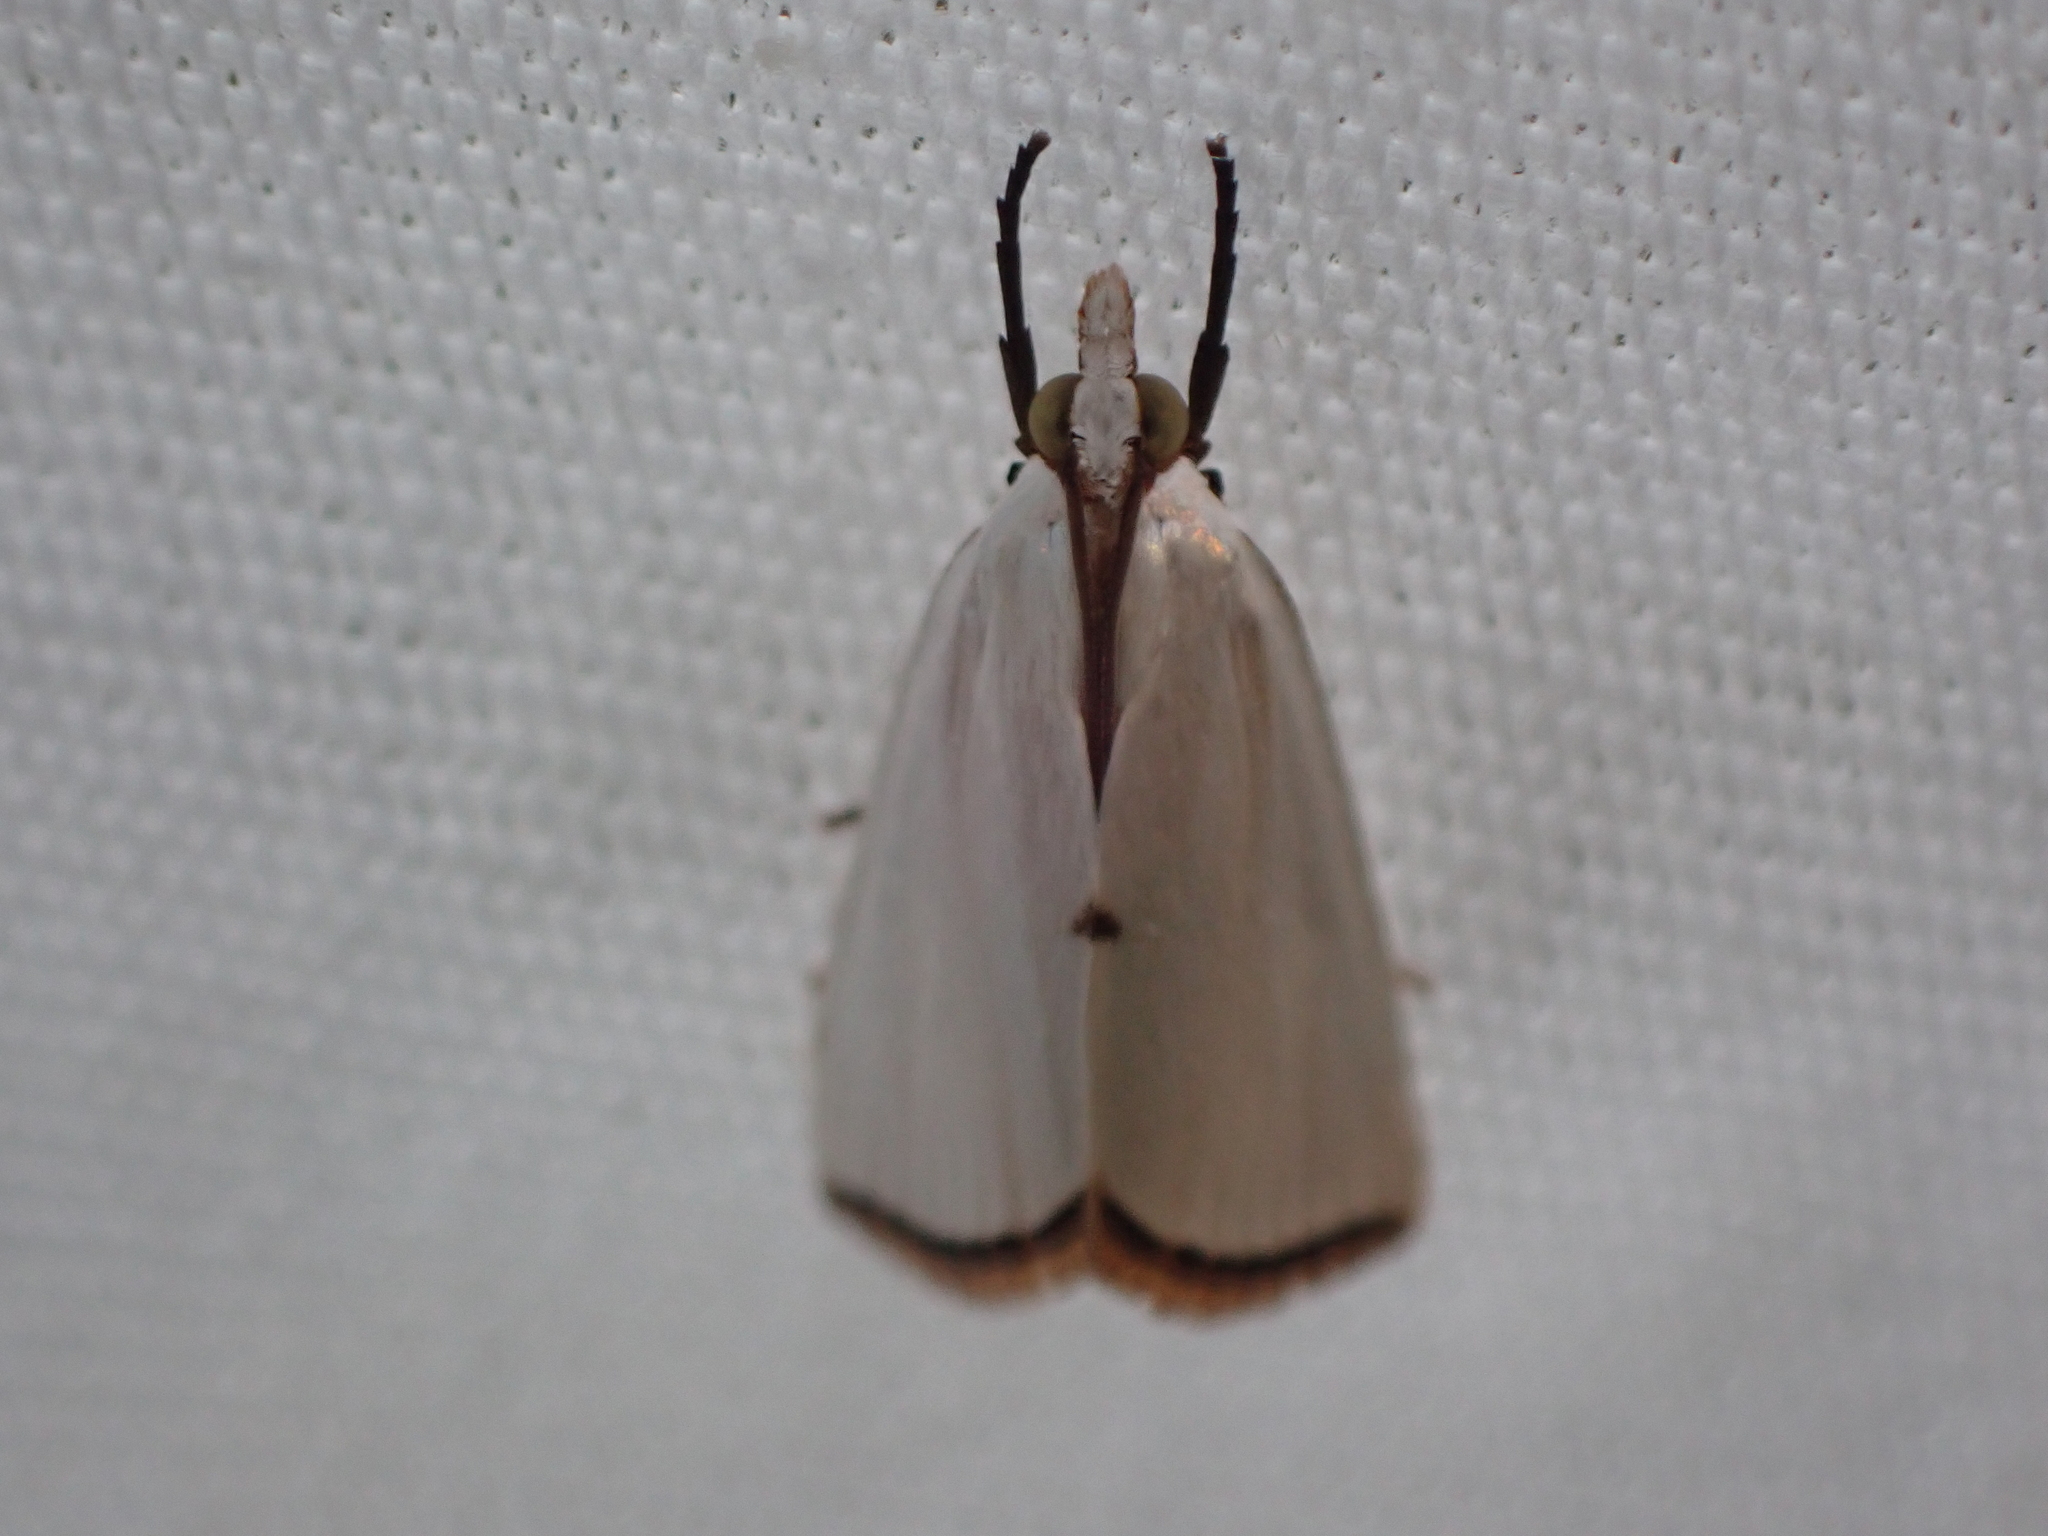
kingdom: Animalia
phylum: Arthropoda
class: Insecta
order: Lepidoptera
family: Crambidae
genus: Argyria
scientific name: Argyria nivalis
